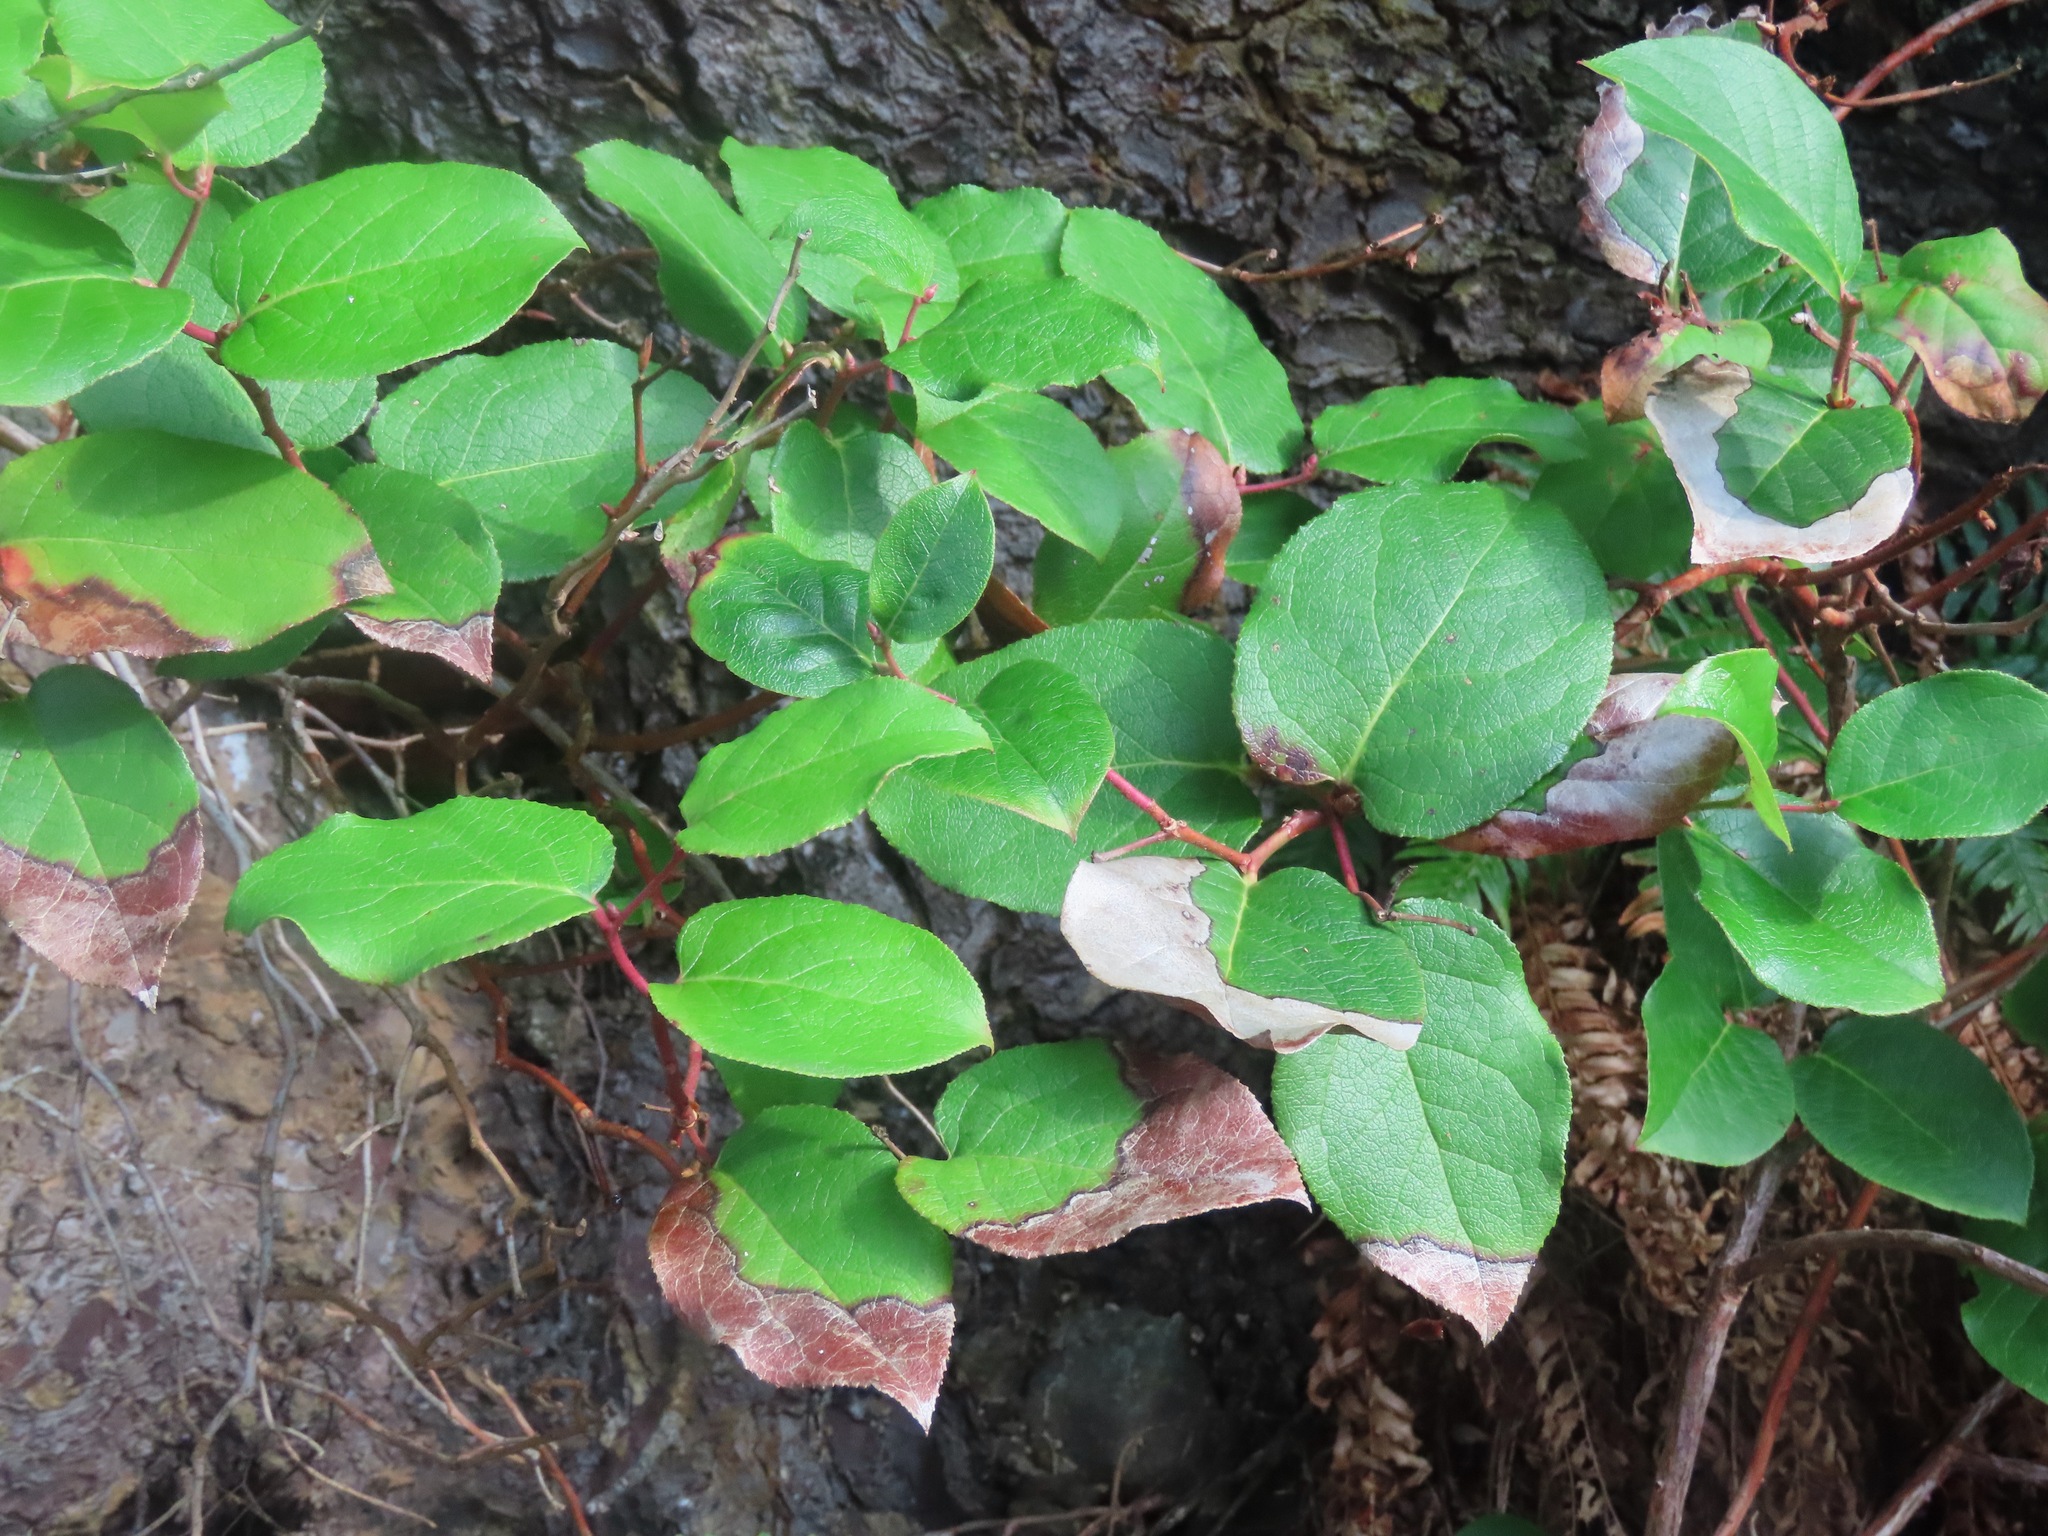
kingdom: Plantae
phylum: Tracheophyta
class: Magnoliopsida
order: Ericales
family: Ericaceae
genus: Gaultheria
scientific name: Gaultheria shallon
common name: Shallon
